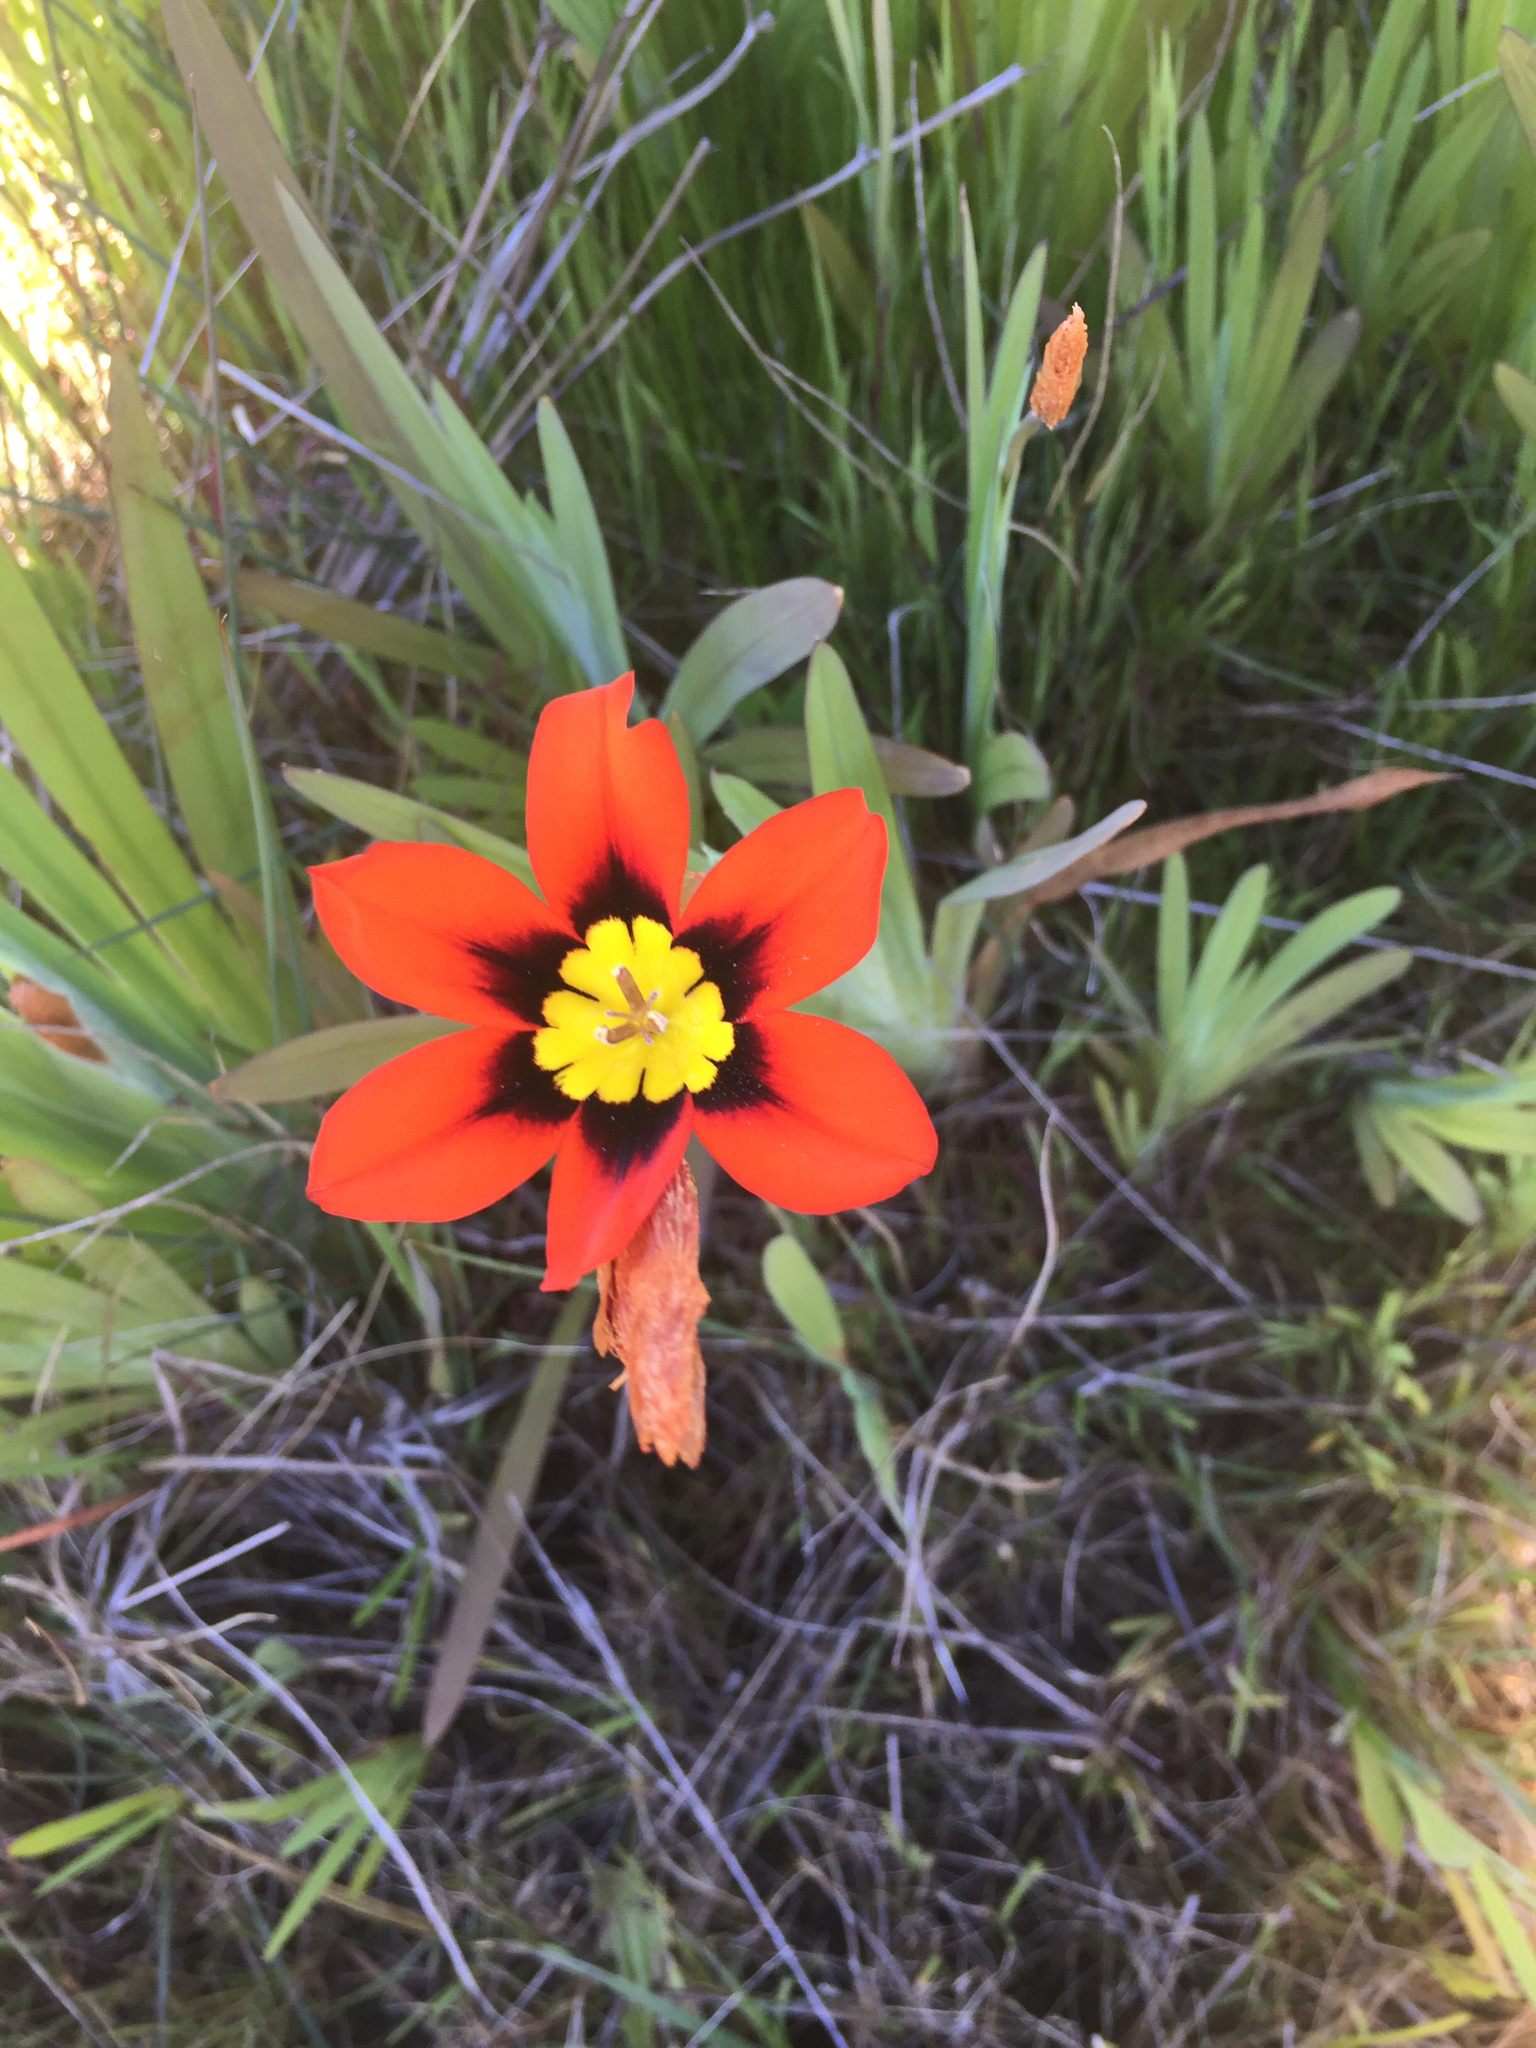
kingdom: Plantae
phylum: Tracheophyta
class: Liliopsida
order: Asparagales
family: Iridaceae
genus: Sparaxis
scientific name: Sparaxis tricolor
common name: Wandflower
